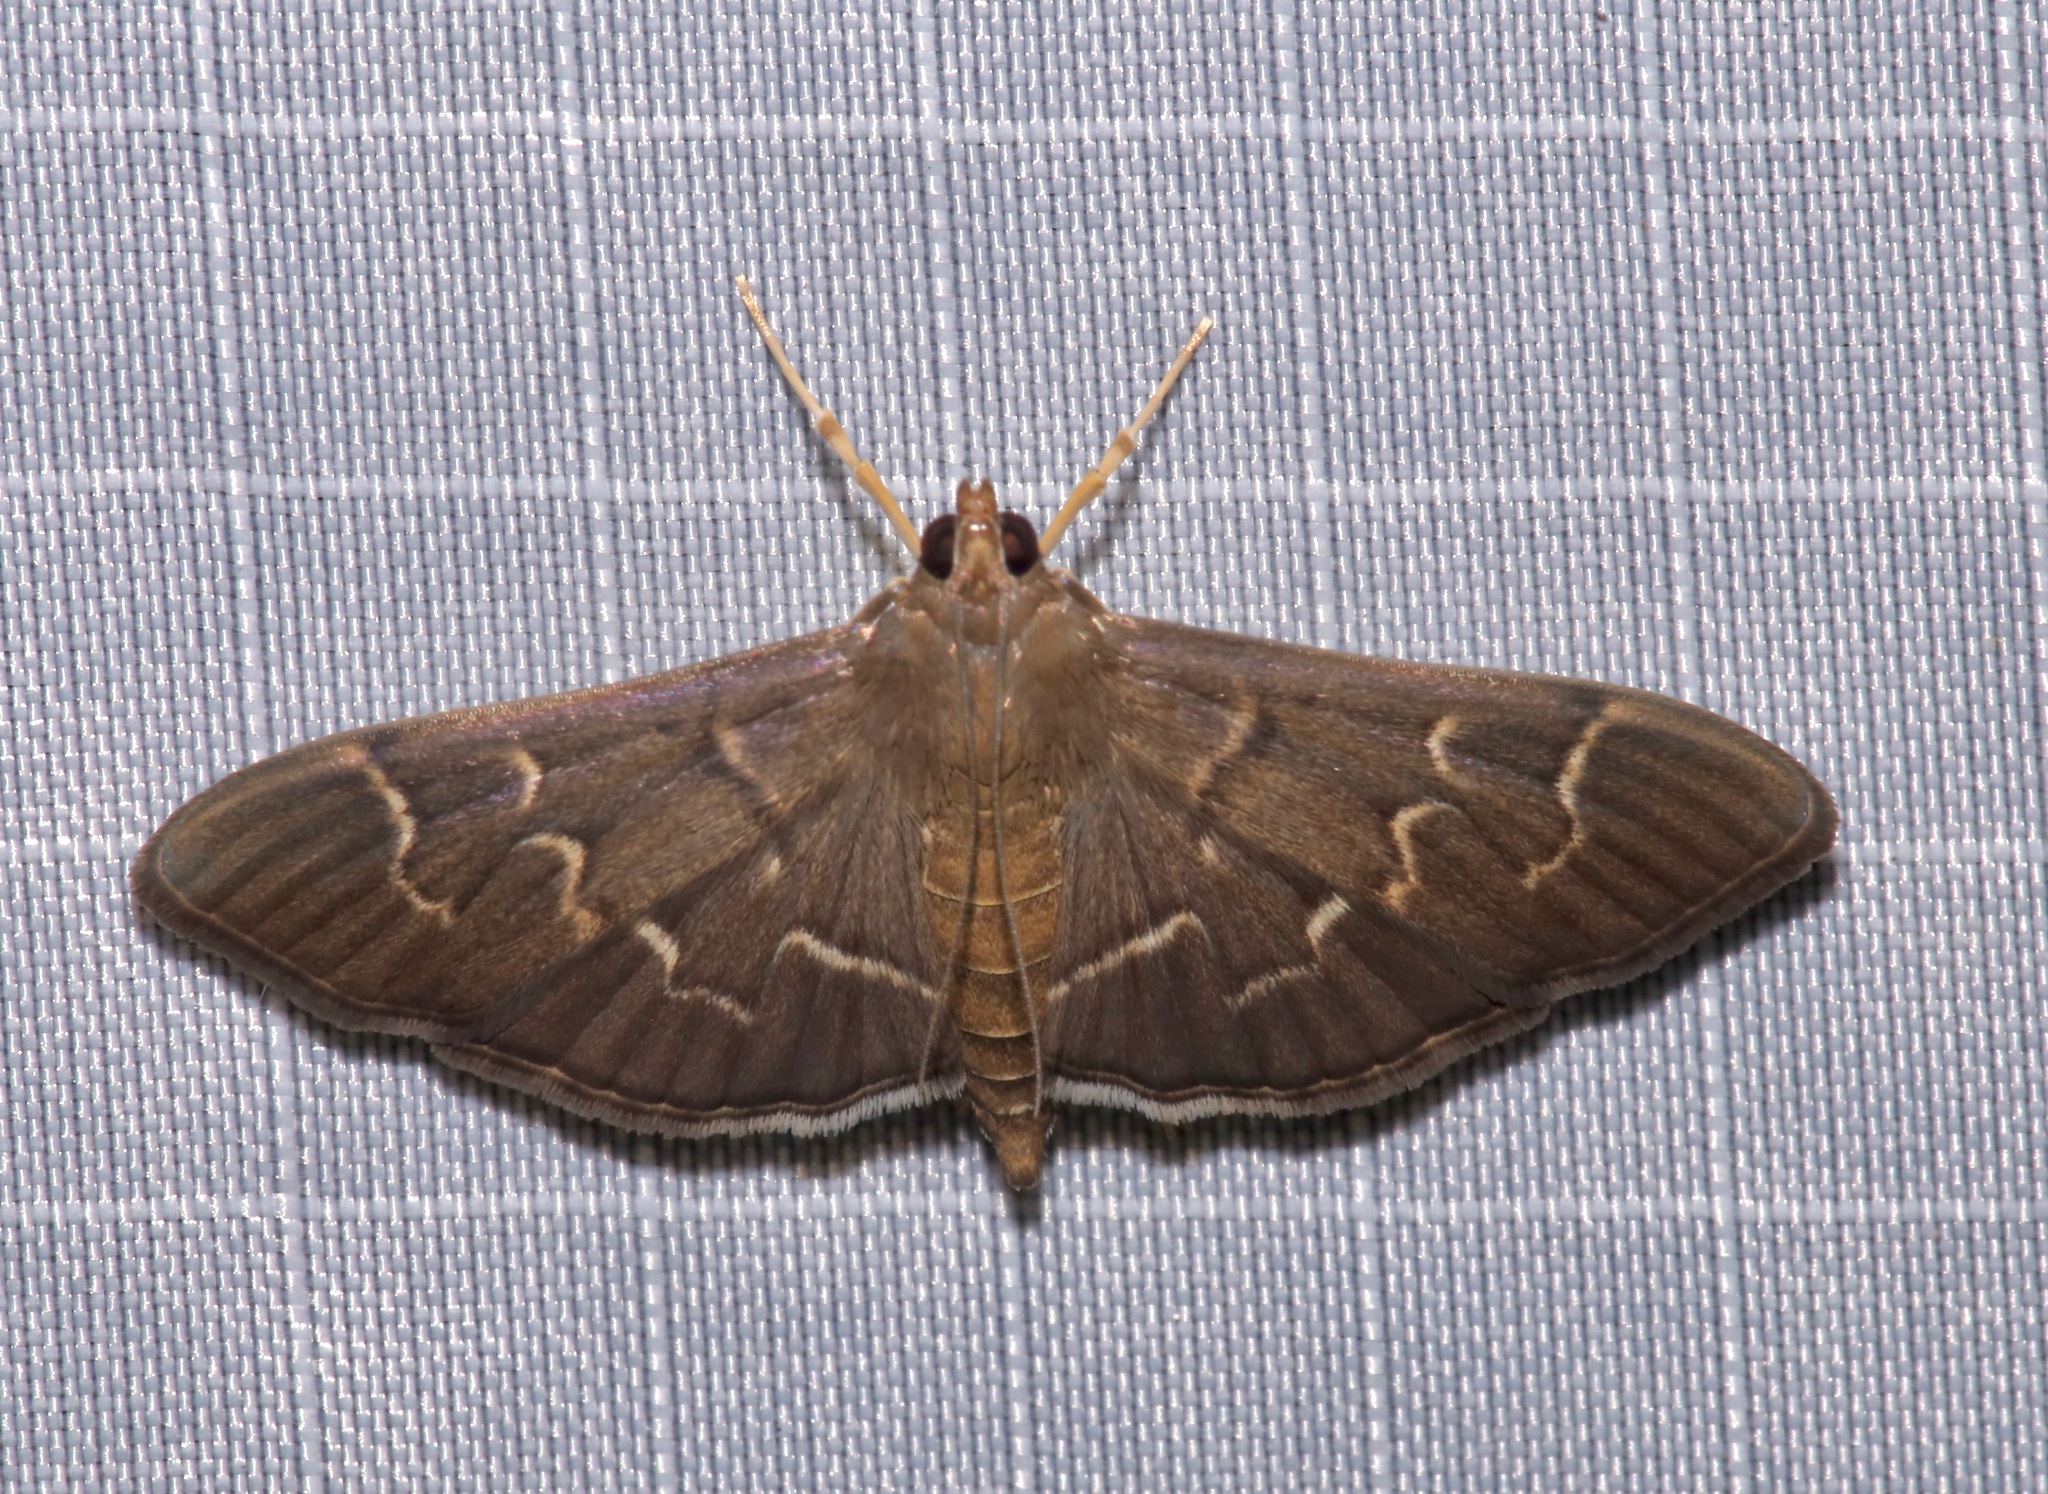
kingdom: Animalia
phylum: Arthropoda
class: Insecta
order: Lepidoptera
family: Crambidae
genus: Pilocrocis
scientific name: Pilocrocis ramentalis
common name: Scraped pilocrocis
